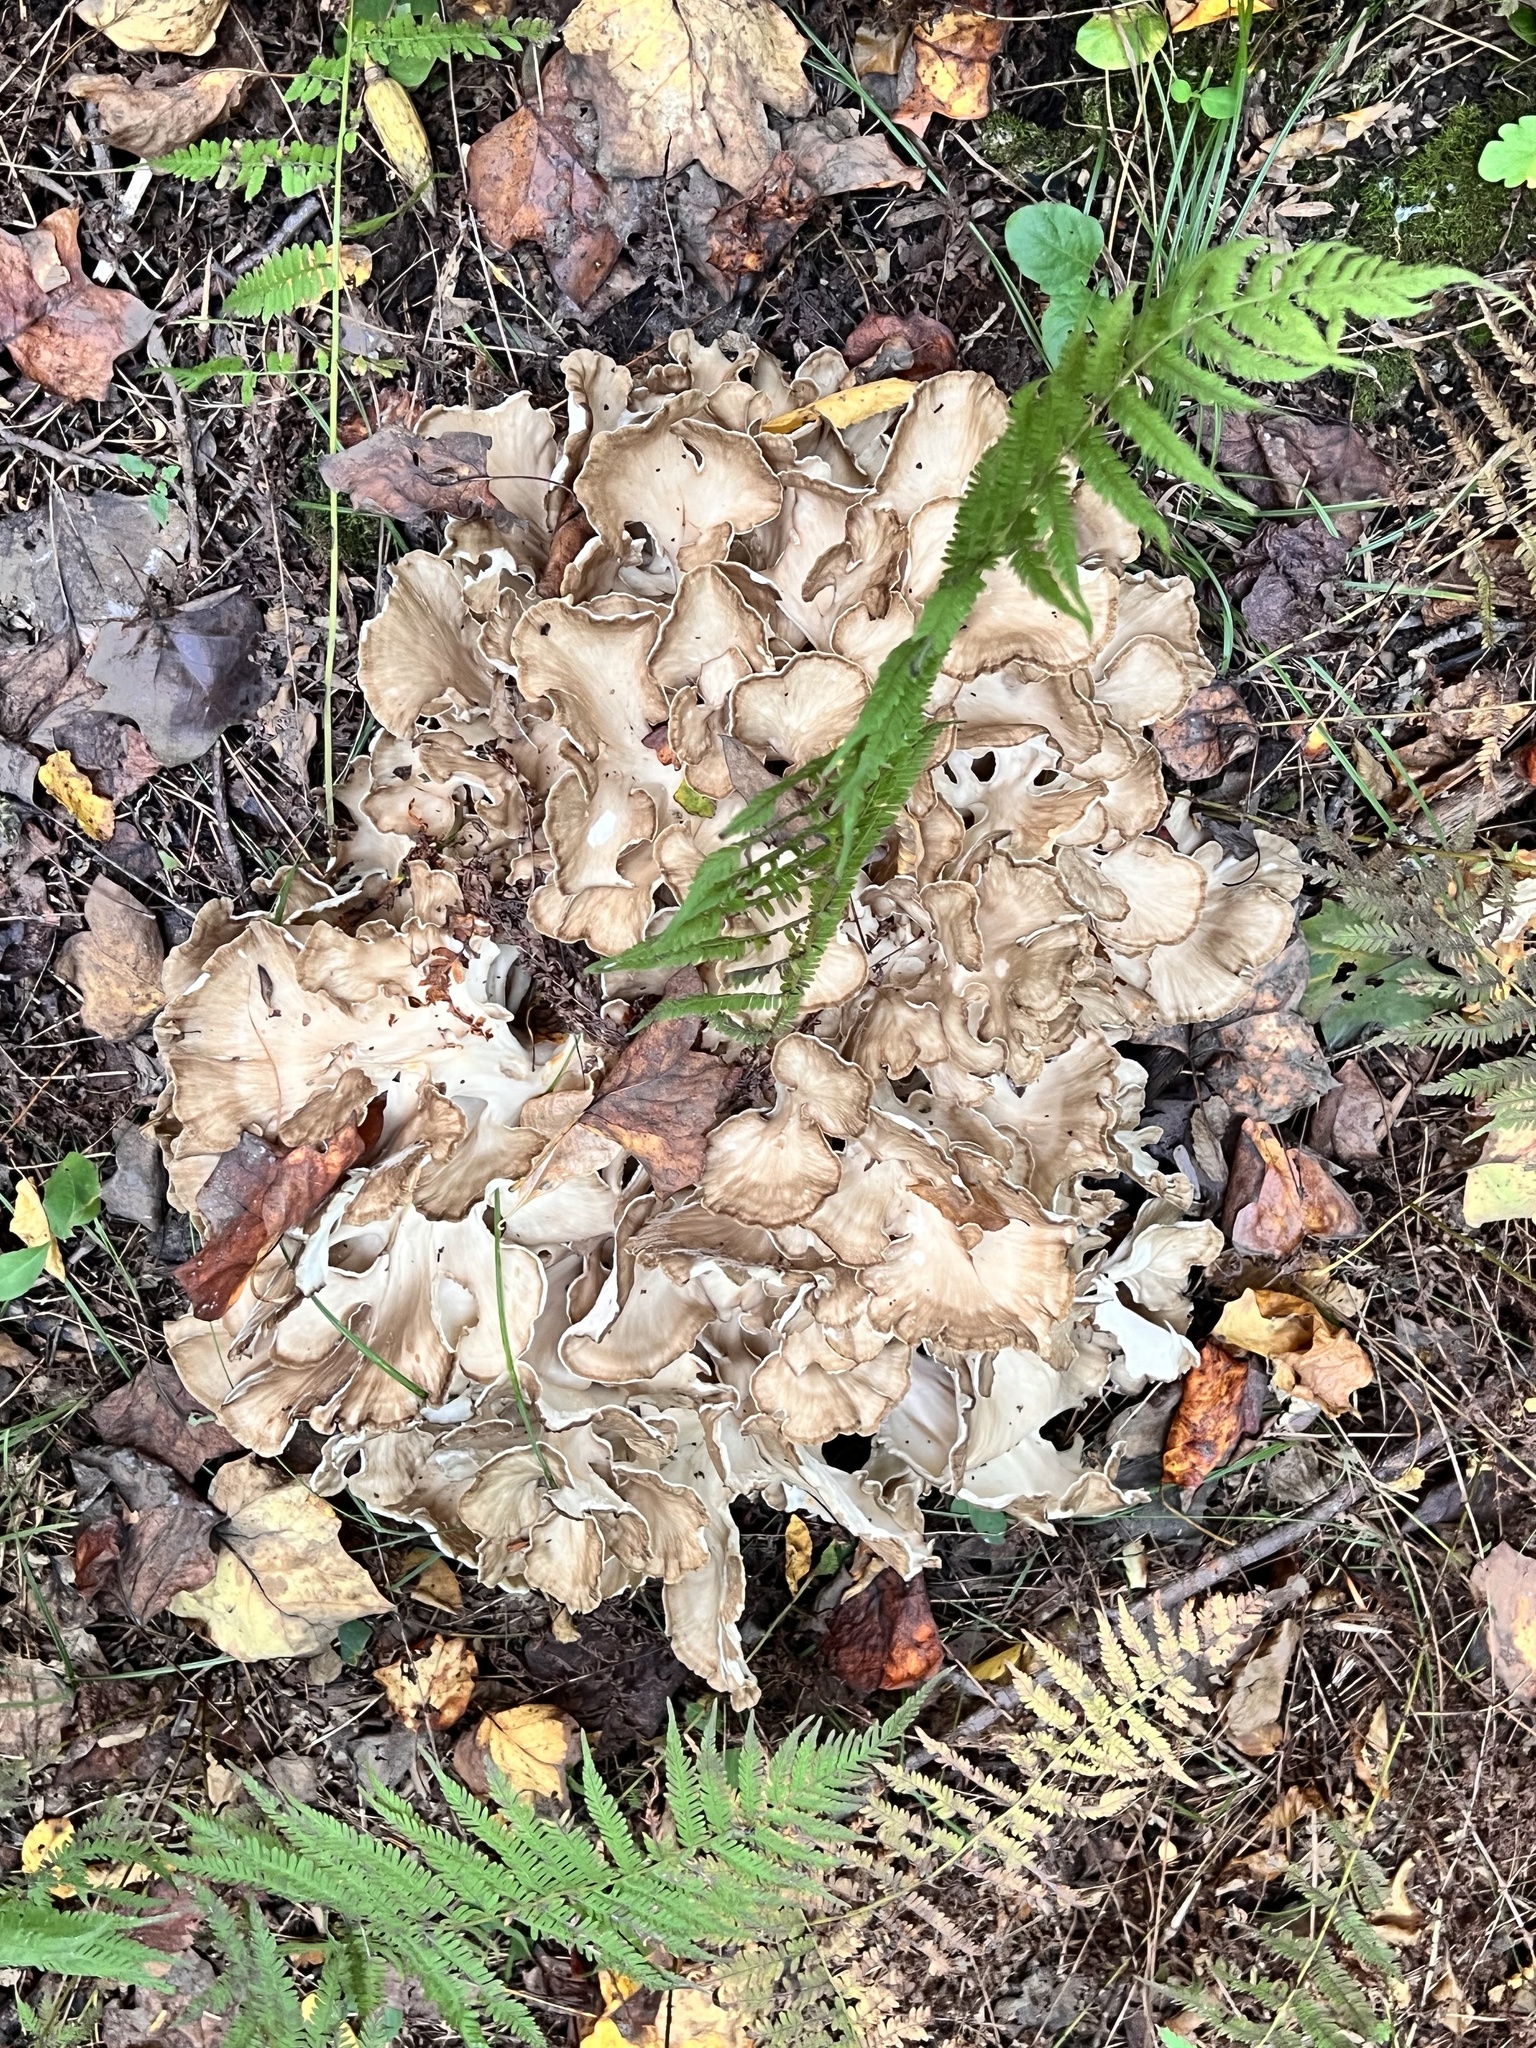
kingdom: Fungi
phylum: Basidiomycota
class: Agaricomycetes
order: Polyporales
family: Grifolaceae
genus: Grifola
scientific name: Grifola frondosa
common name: Hen of the woods
